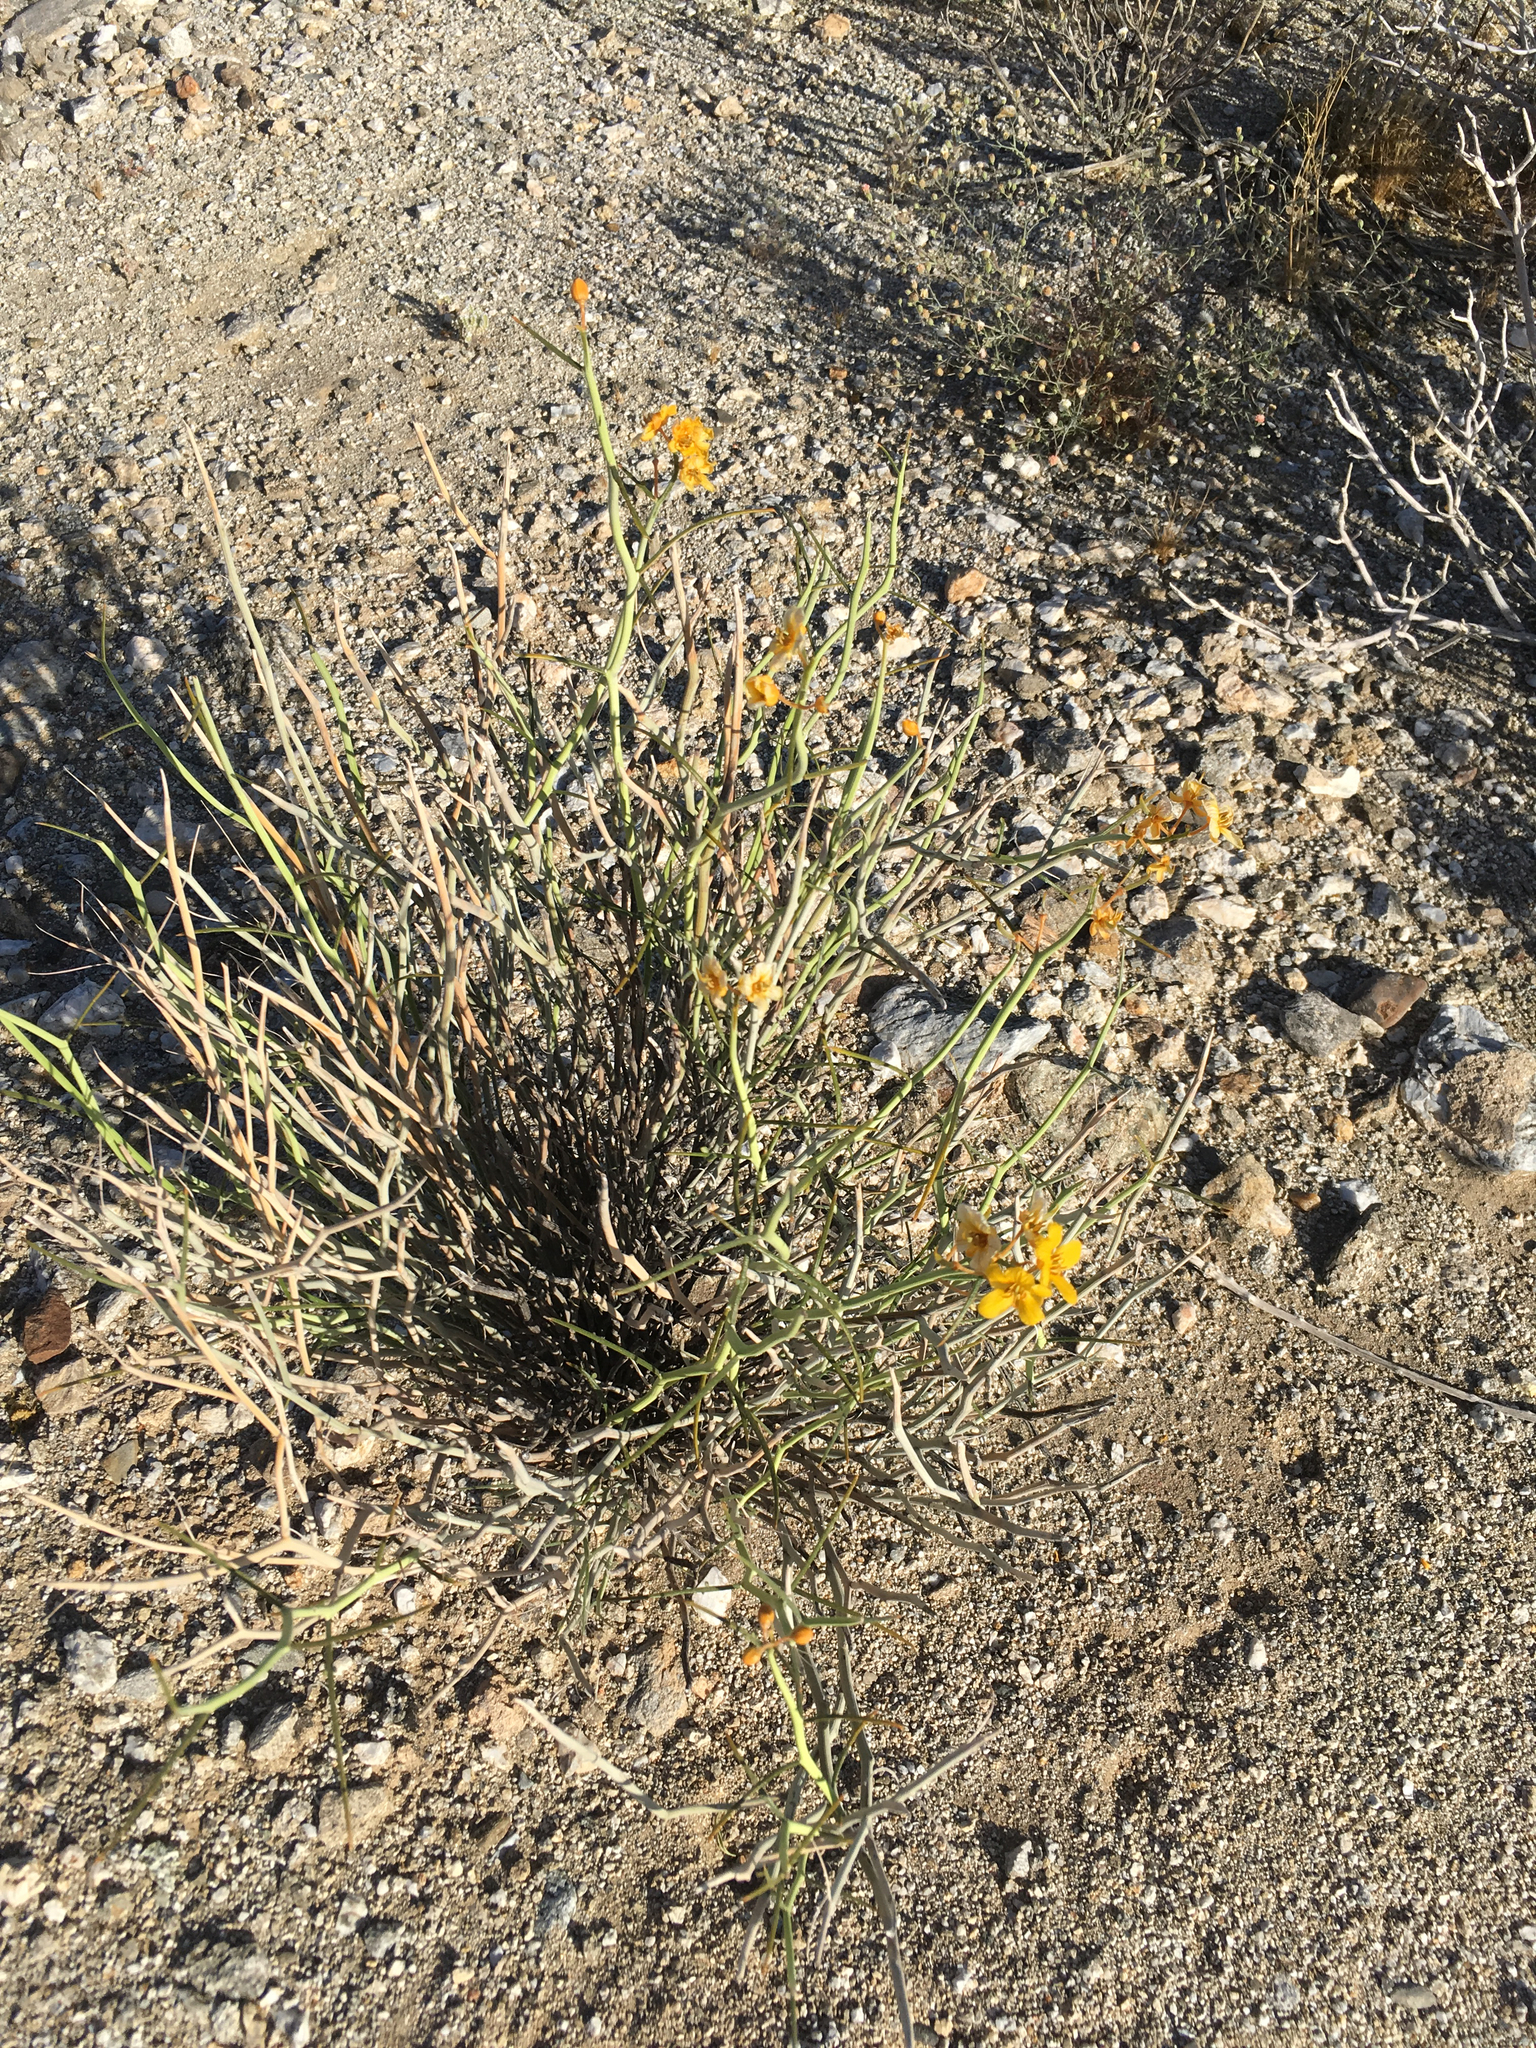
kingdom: Plantae
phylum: Tracheophyta
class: Magnoliopsida
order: Fabales
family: Fabaceae
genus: Senna
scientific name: Senna armata
